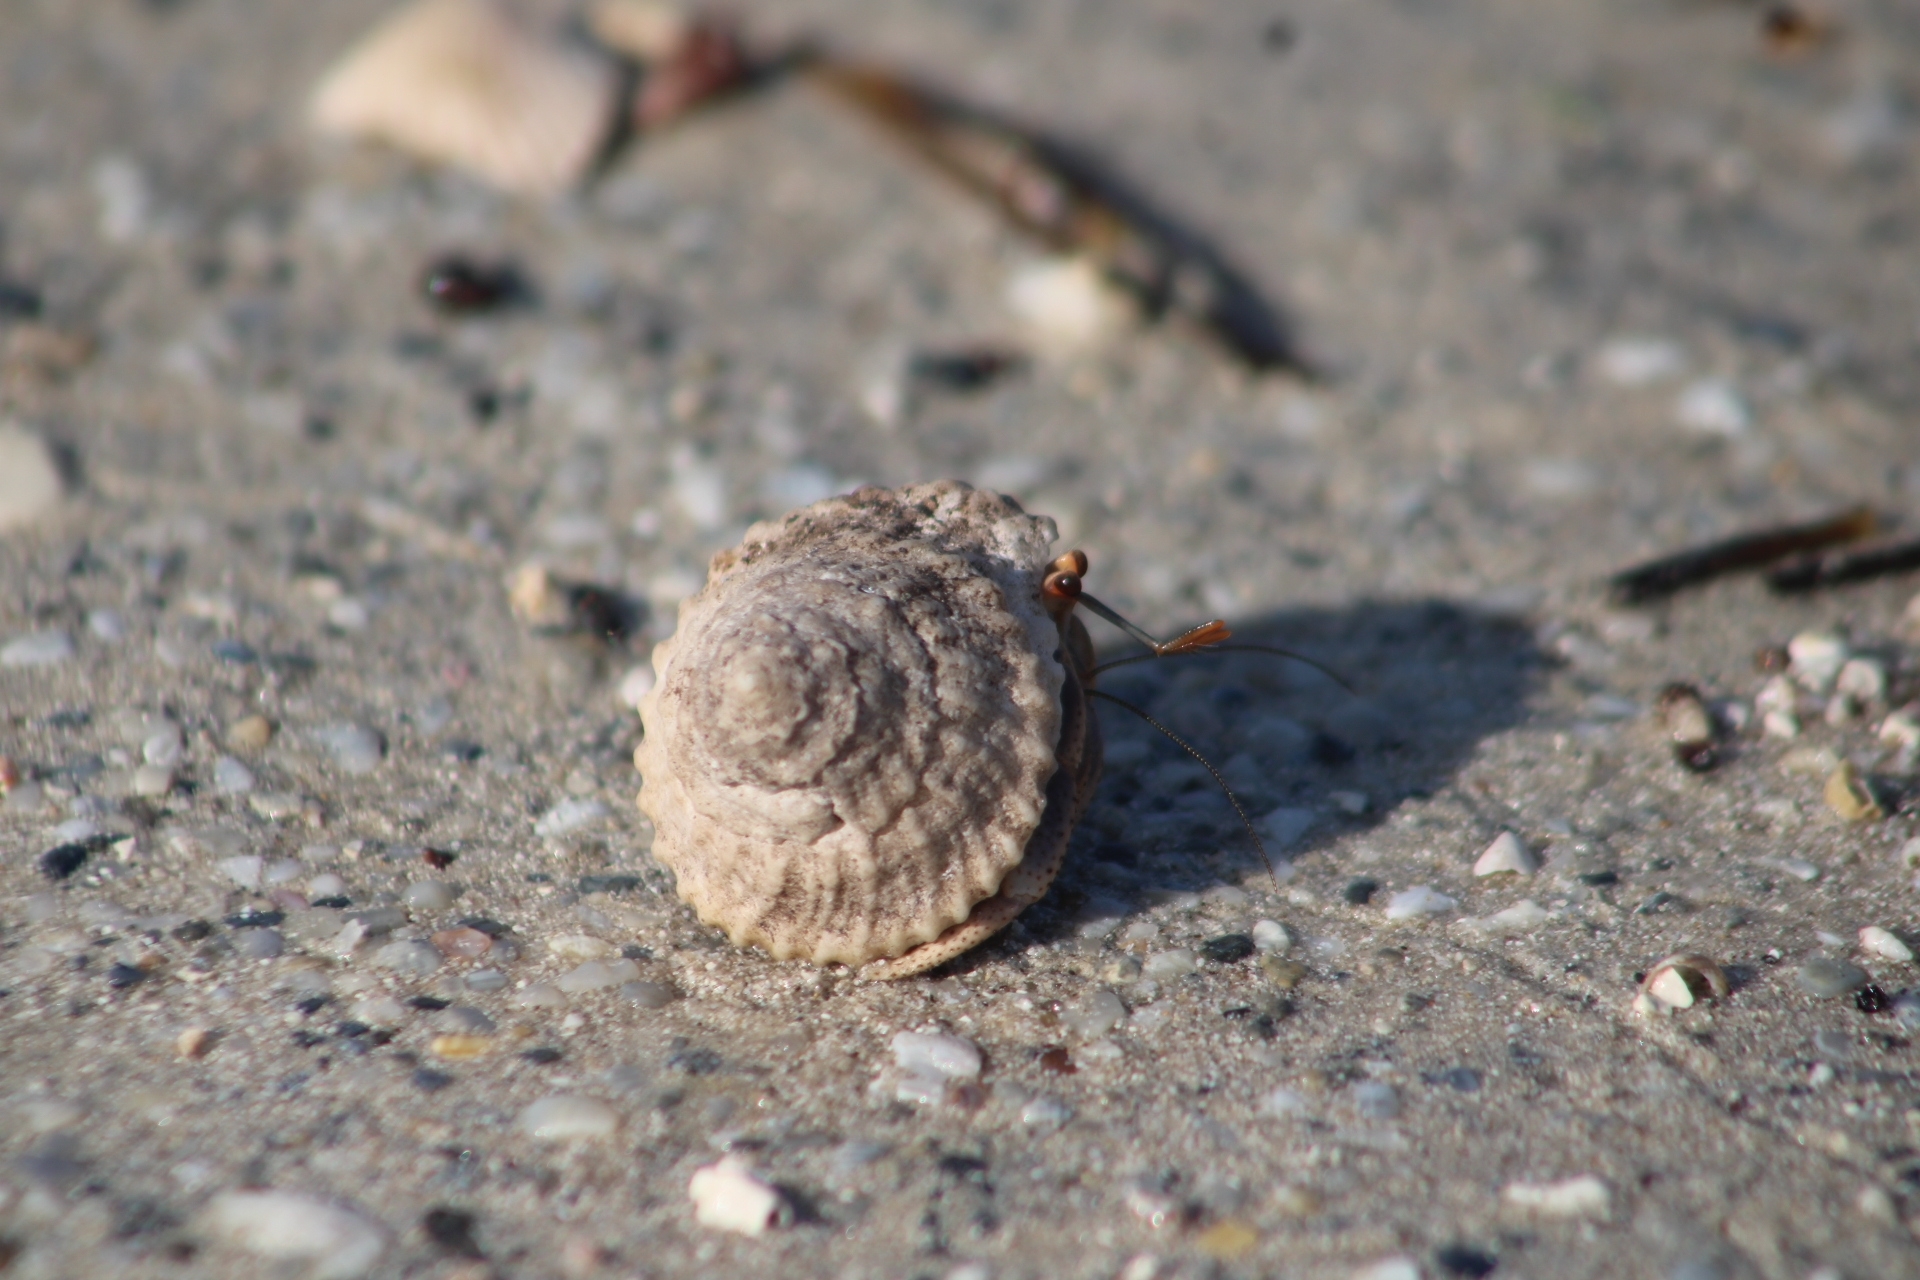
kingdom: Animalia
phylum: Arthropoda
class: Malacostraca
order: Decapoda
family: Coenobitidae
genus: Coenobita
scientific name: Coenobita clypeatus
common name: Caribbean hermit crab
